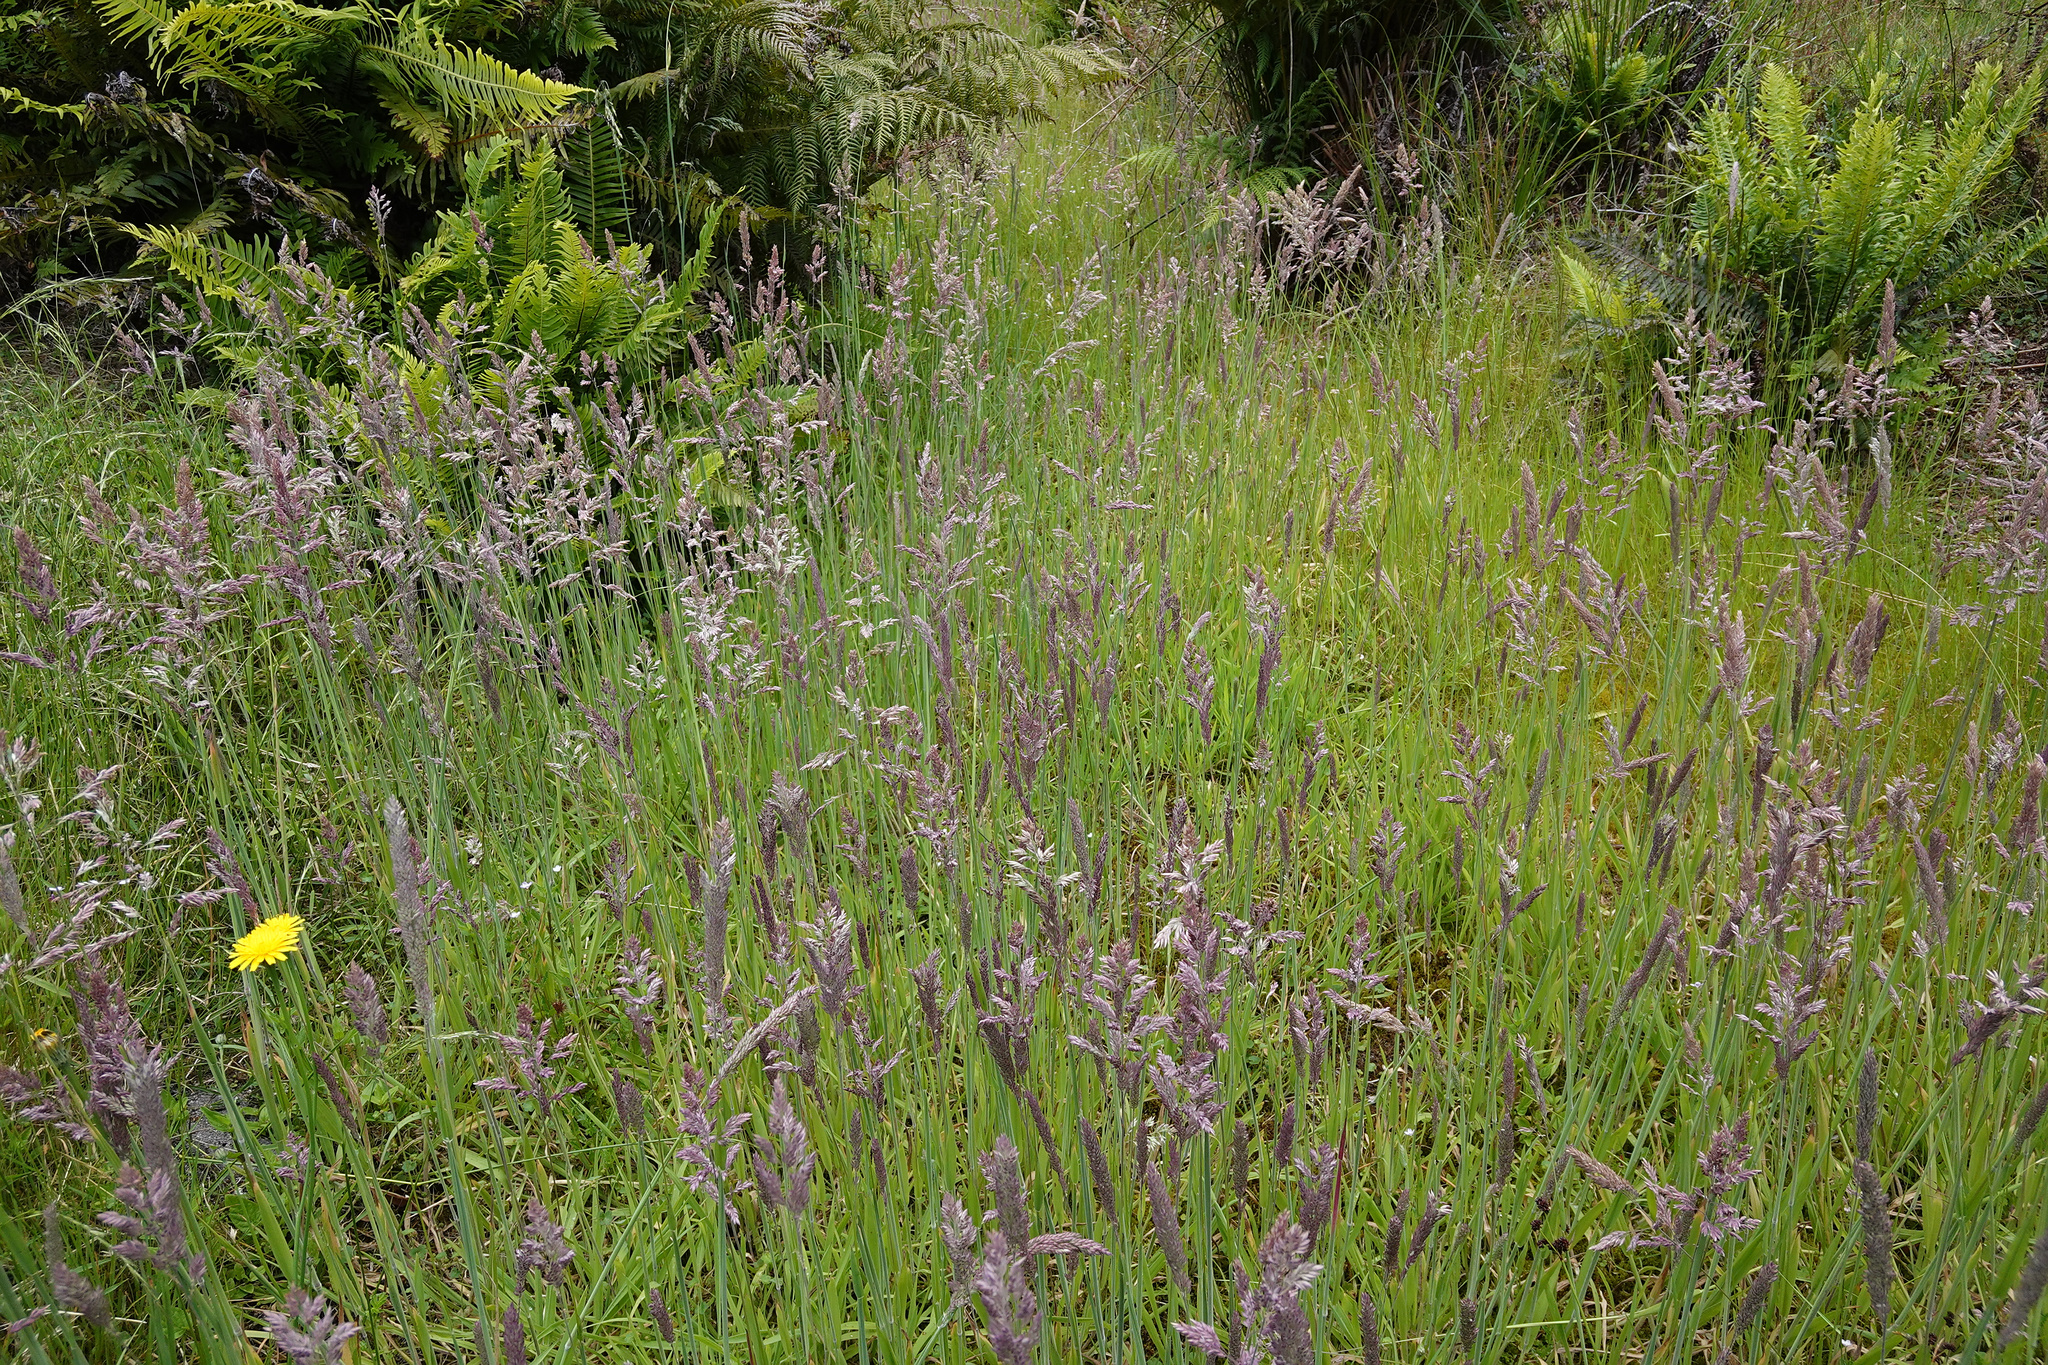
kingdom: Plantae
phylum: Tracheophyta
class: Liliopsida
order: Poales
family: Poaceae
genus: Holcus
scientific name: Holcus lanatus
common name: Yorkshire-fog
